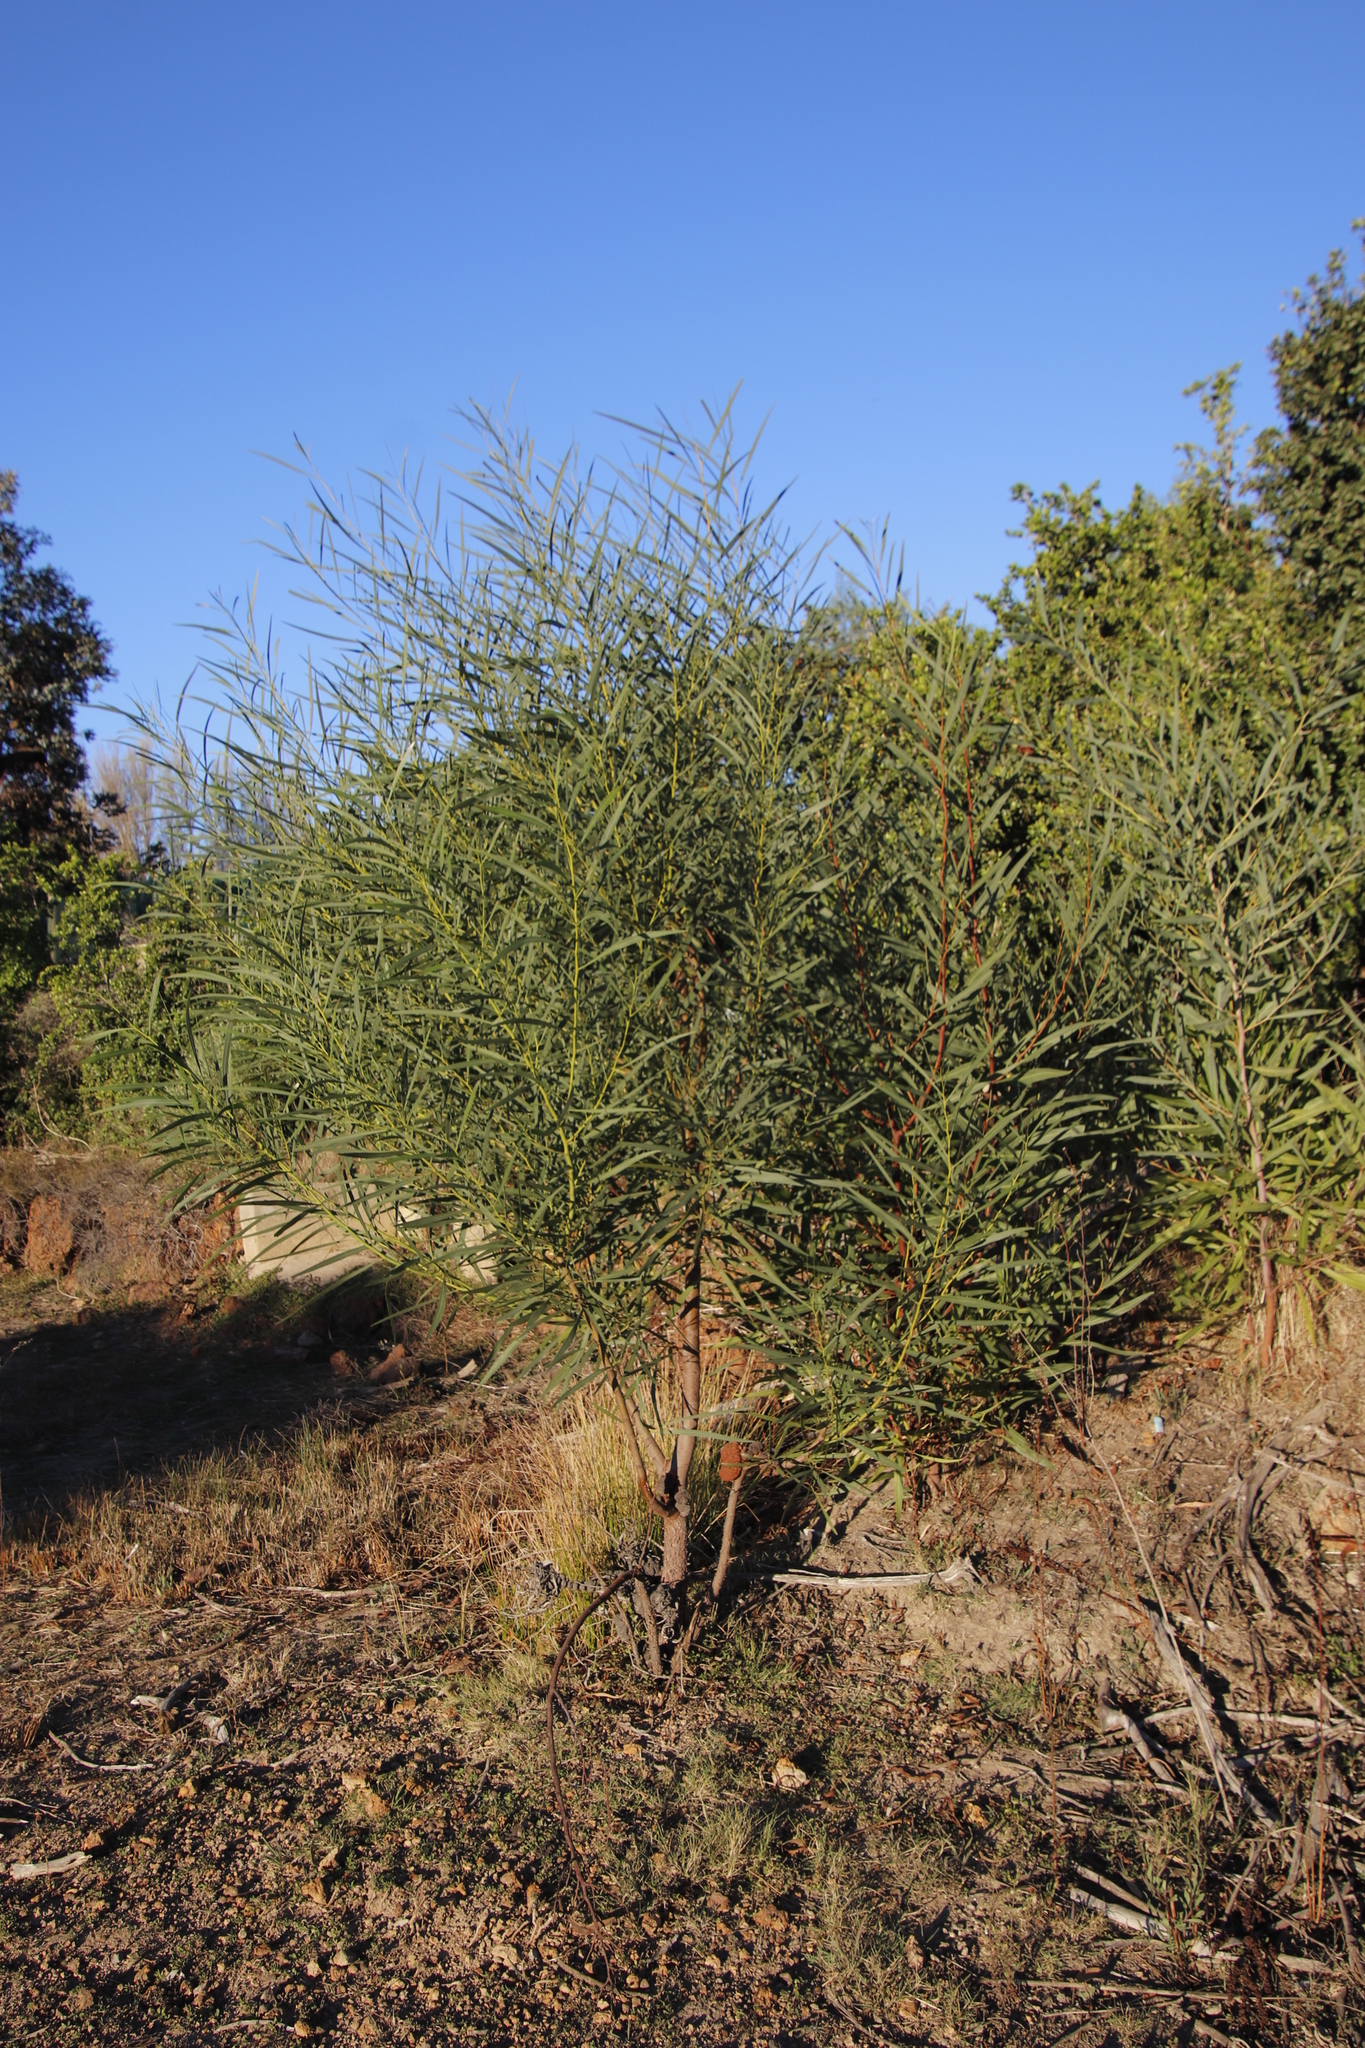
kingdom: Plantae
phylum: Tracheophyta
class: Magnoliopsida
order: Fabales
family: Fabaceae
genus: Acacia
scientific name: Acacia saligna
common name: Orange wattle
